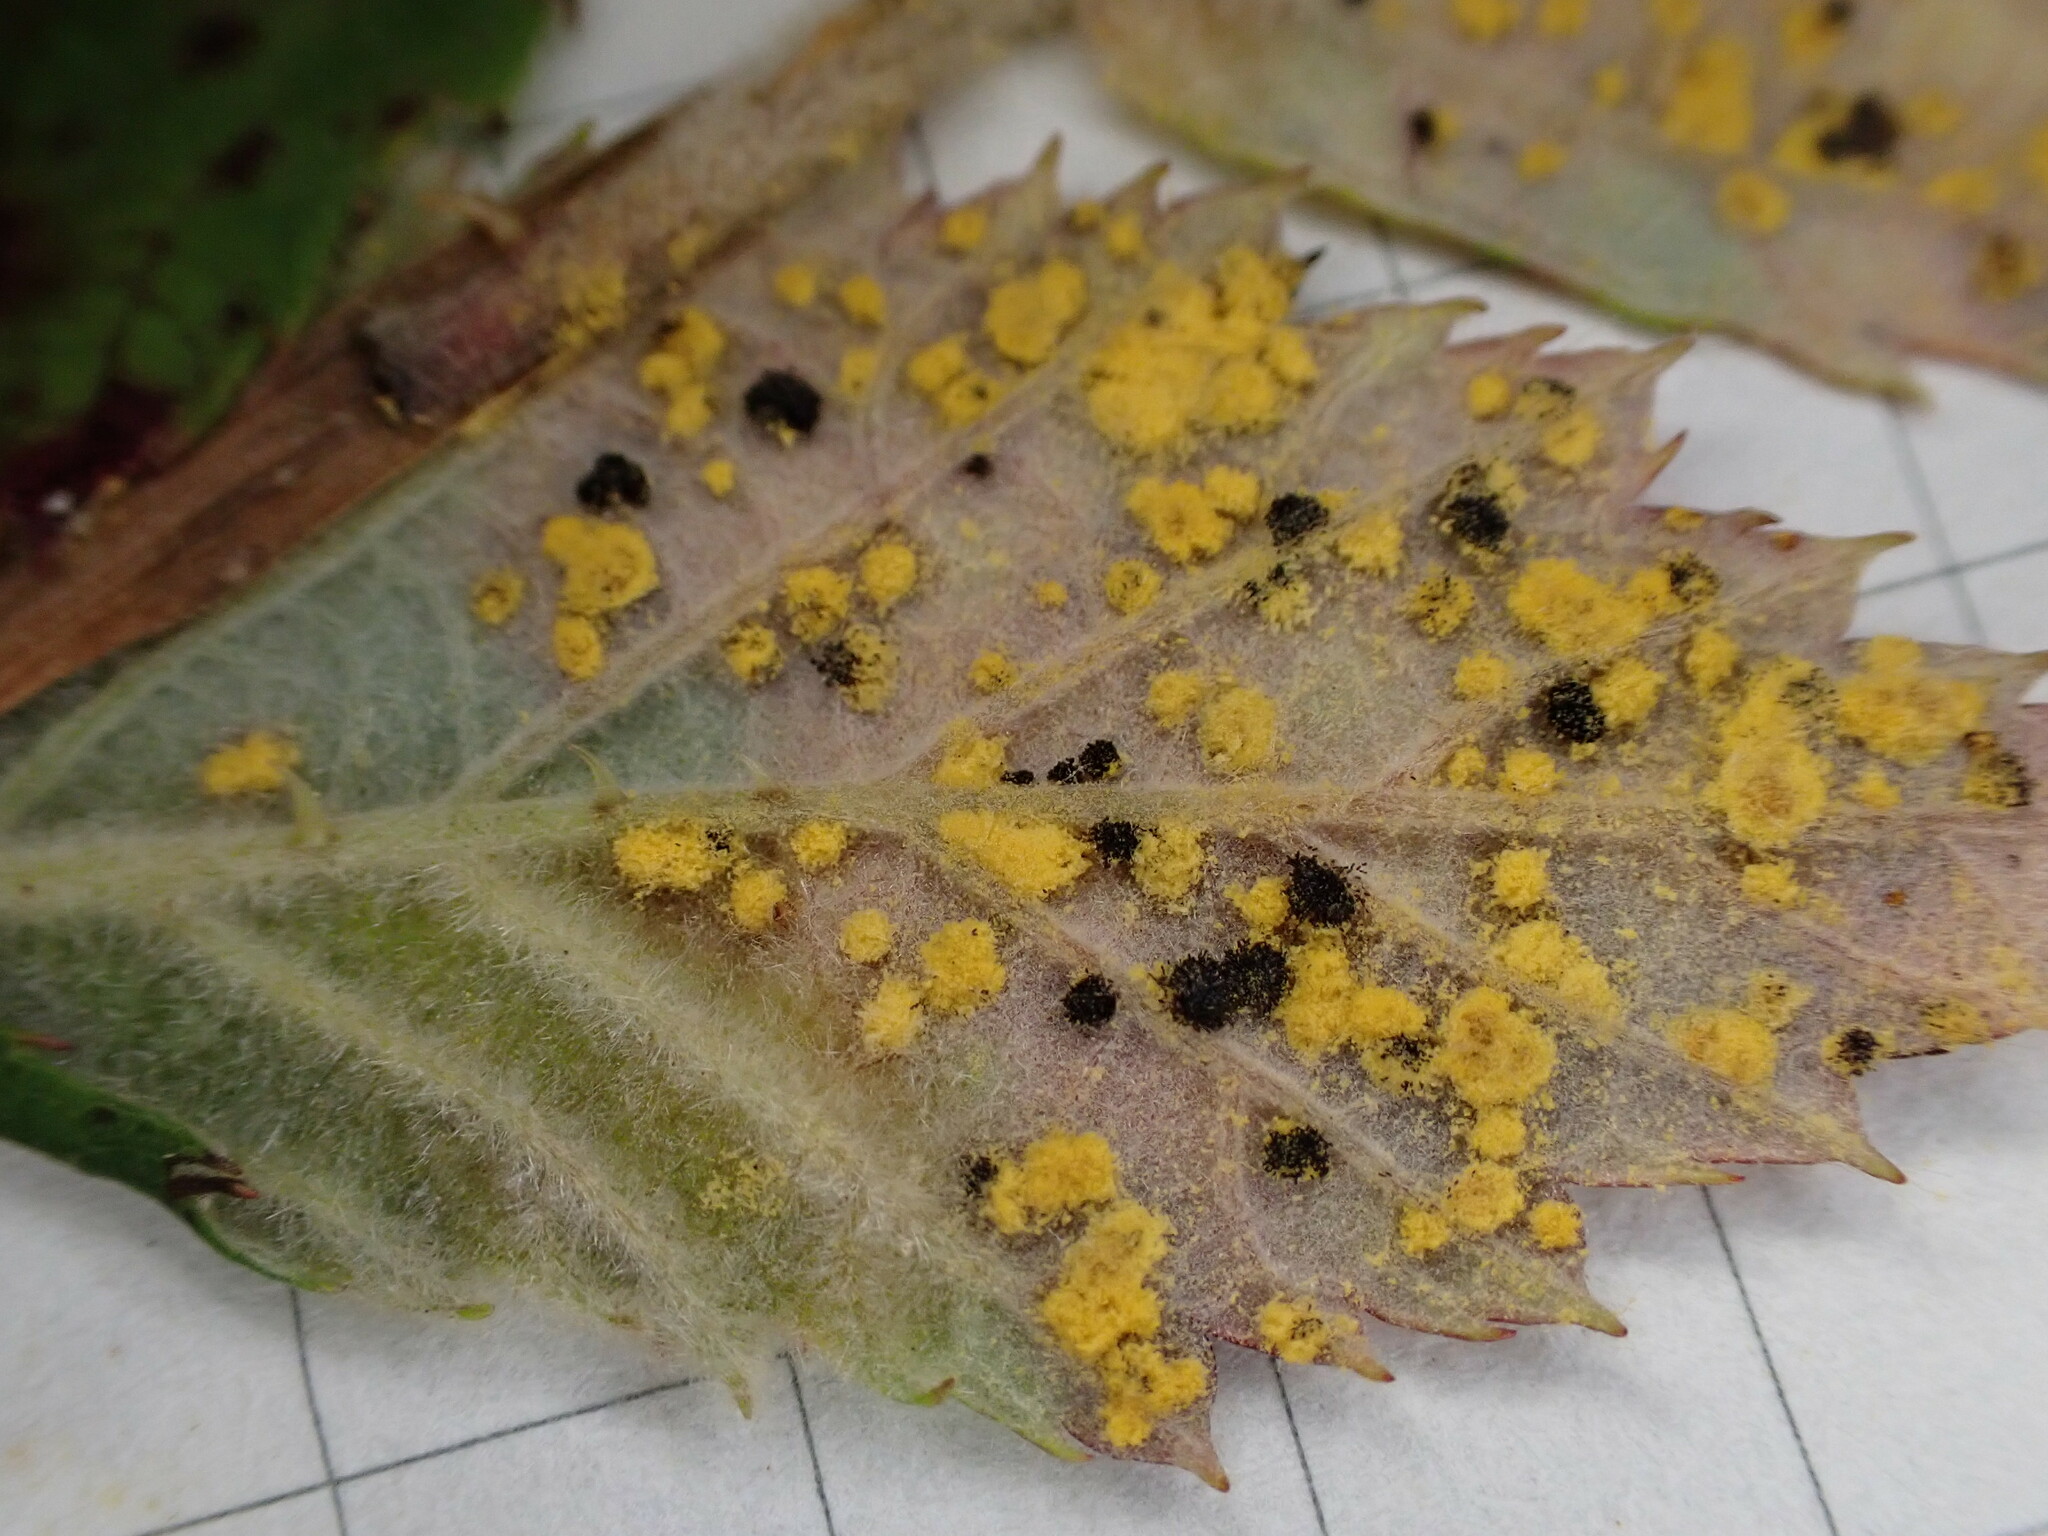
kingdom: Fungi
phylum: Basidiomycota
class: Pucciniomycetes
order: Pucciniales
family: Phragmidiaceae
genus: Phragmidium
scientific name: Phragmidium violaceum
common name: Violet bramble rust
